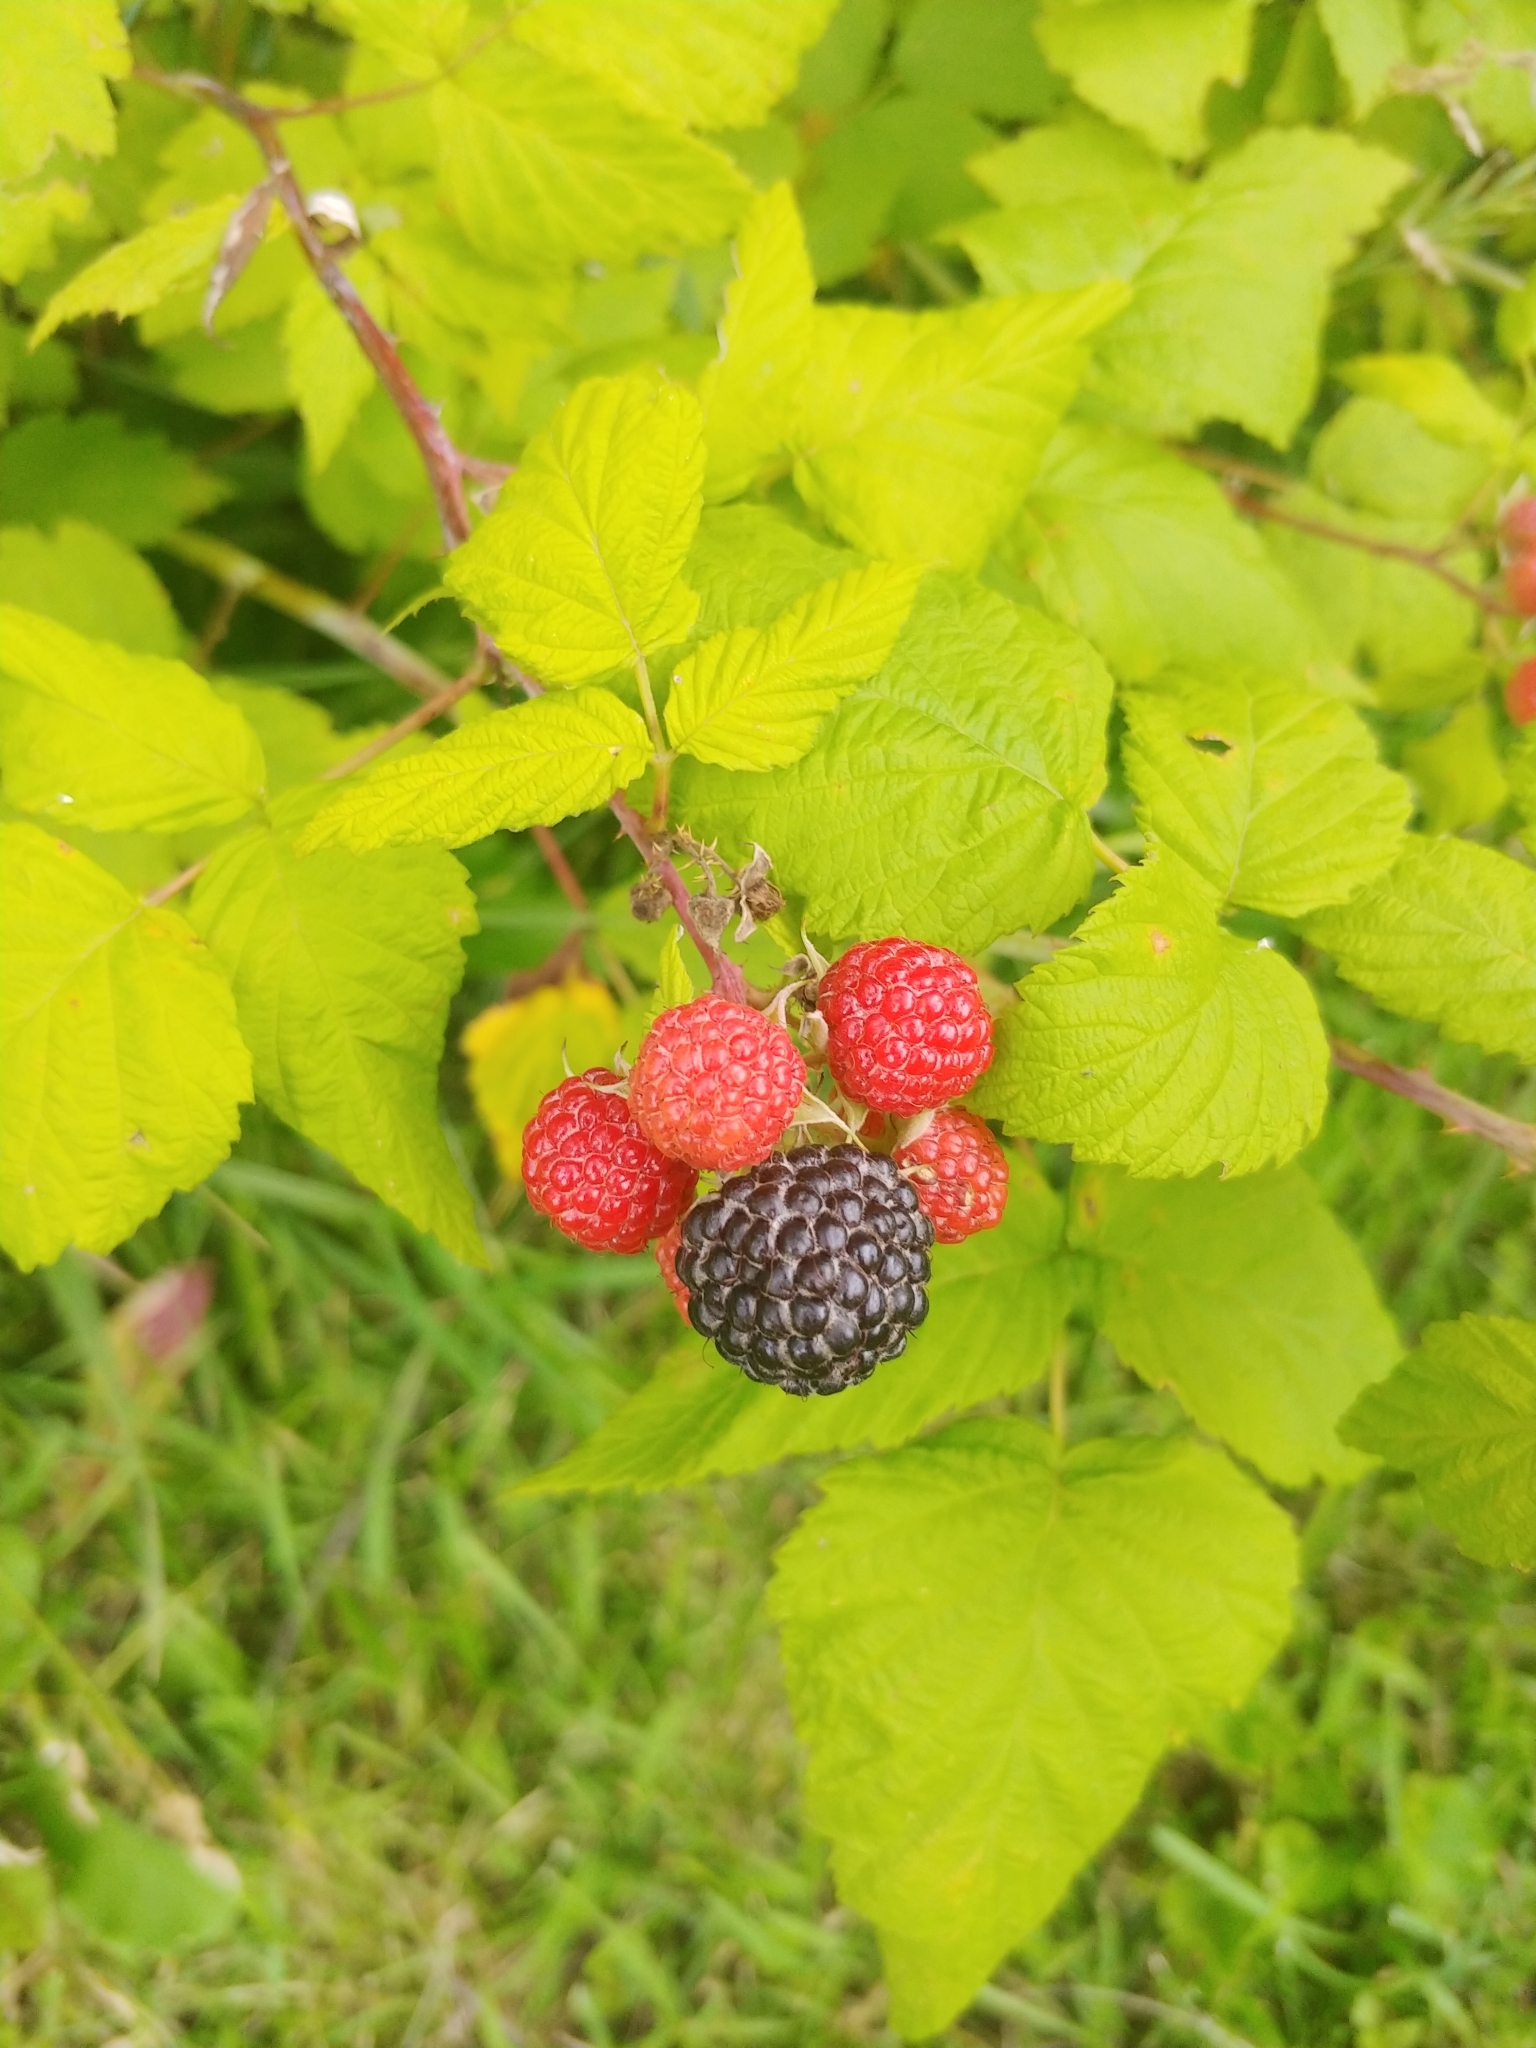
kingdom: Plantae
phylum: Tracheophyta
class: Magnoliopsida
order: Rosales
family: Rosaceae
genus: Rubus
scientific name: Rubus occidentalis
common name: Black raspberry
